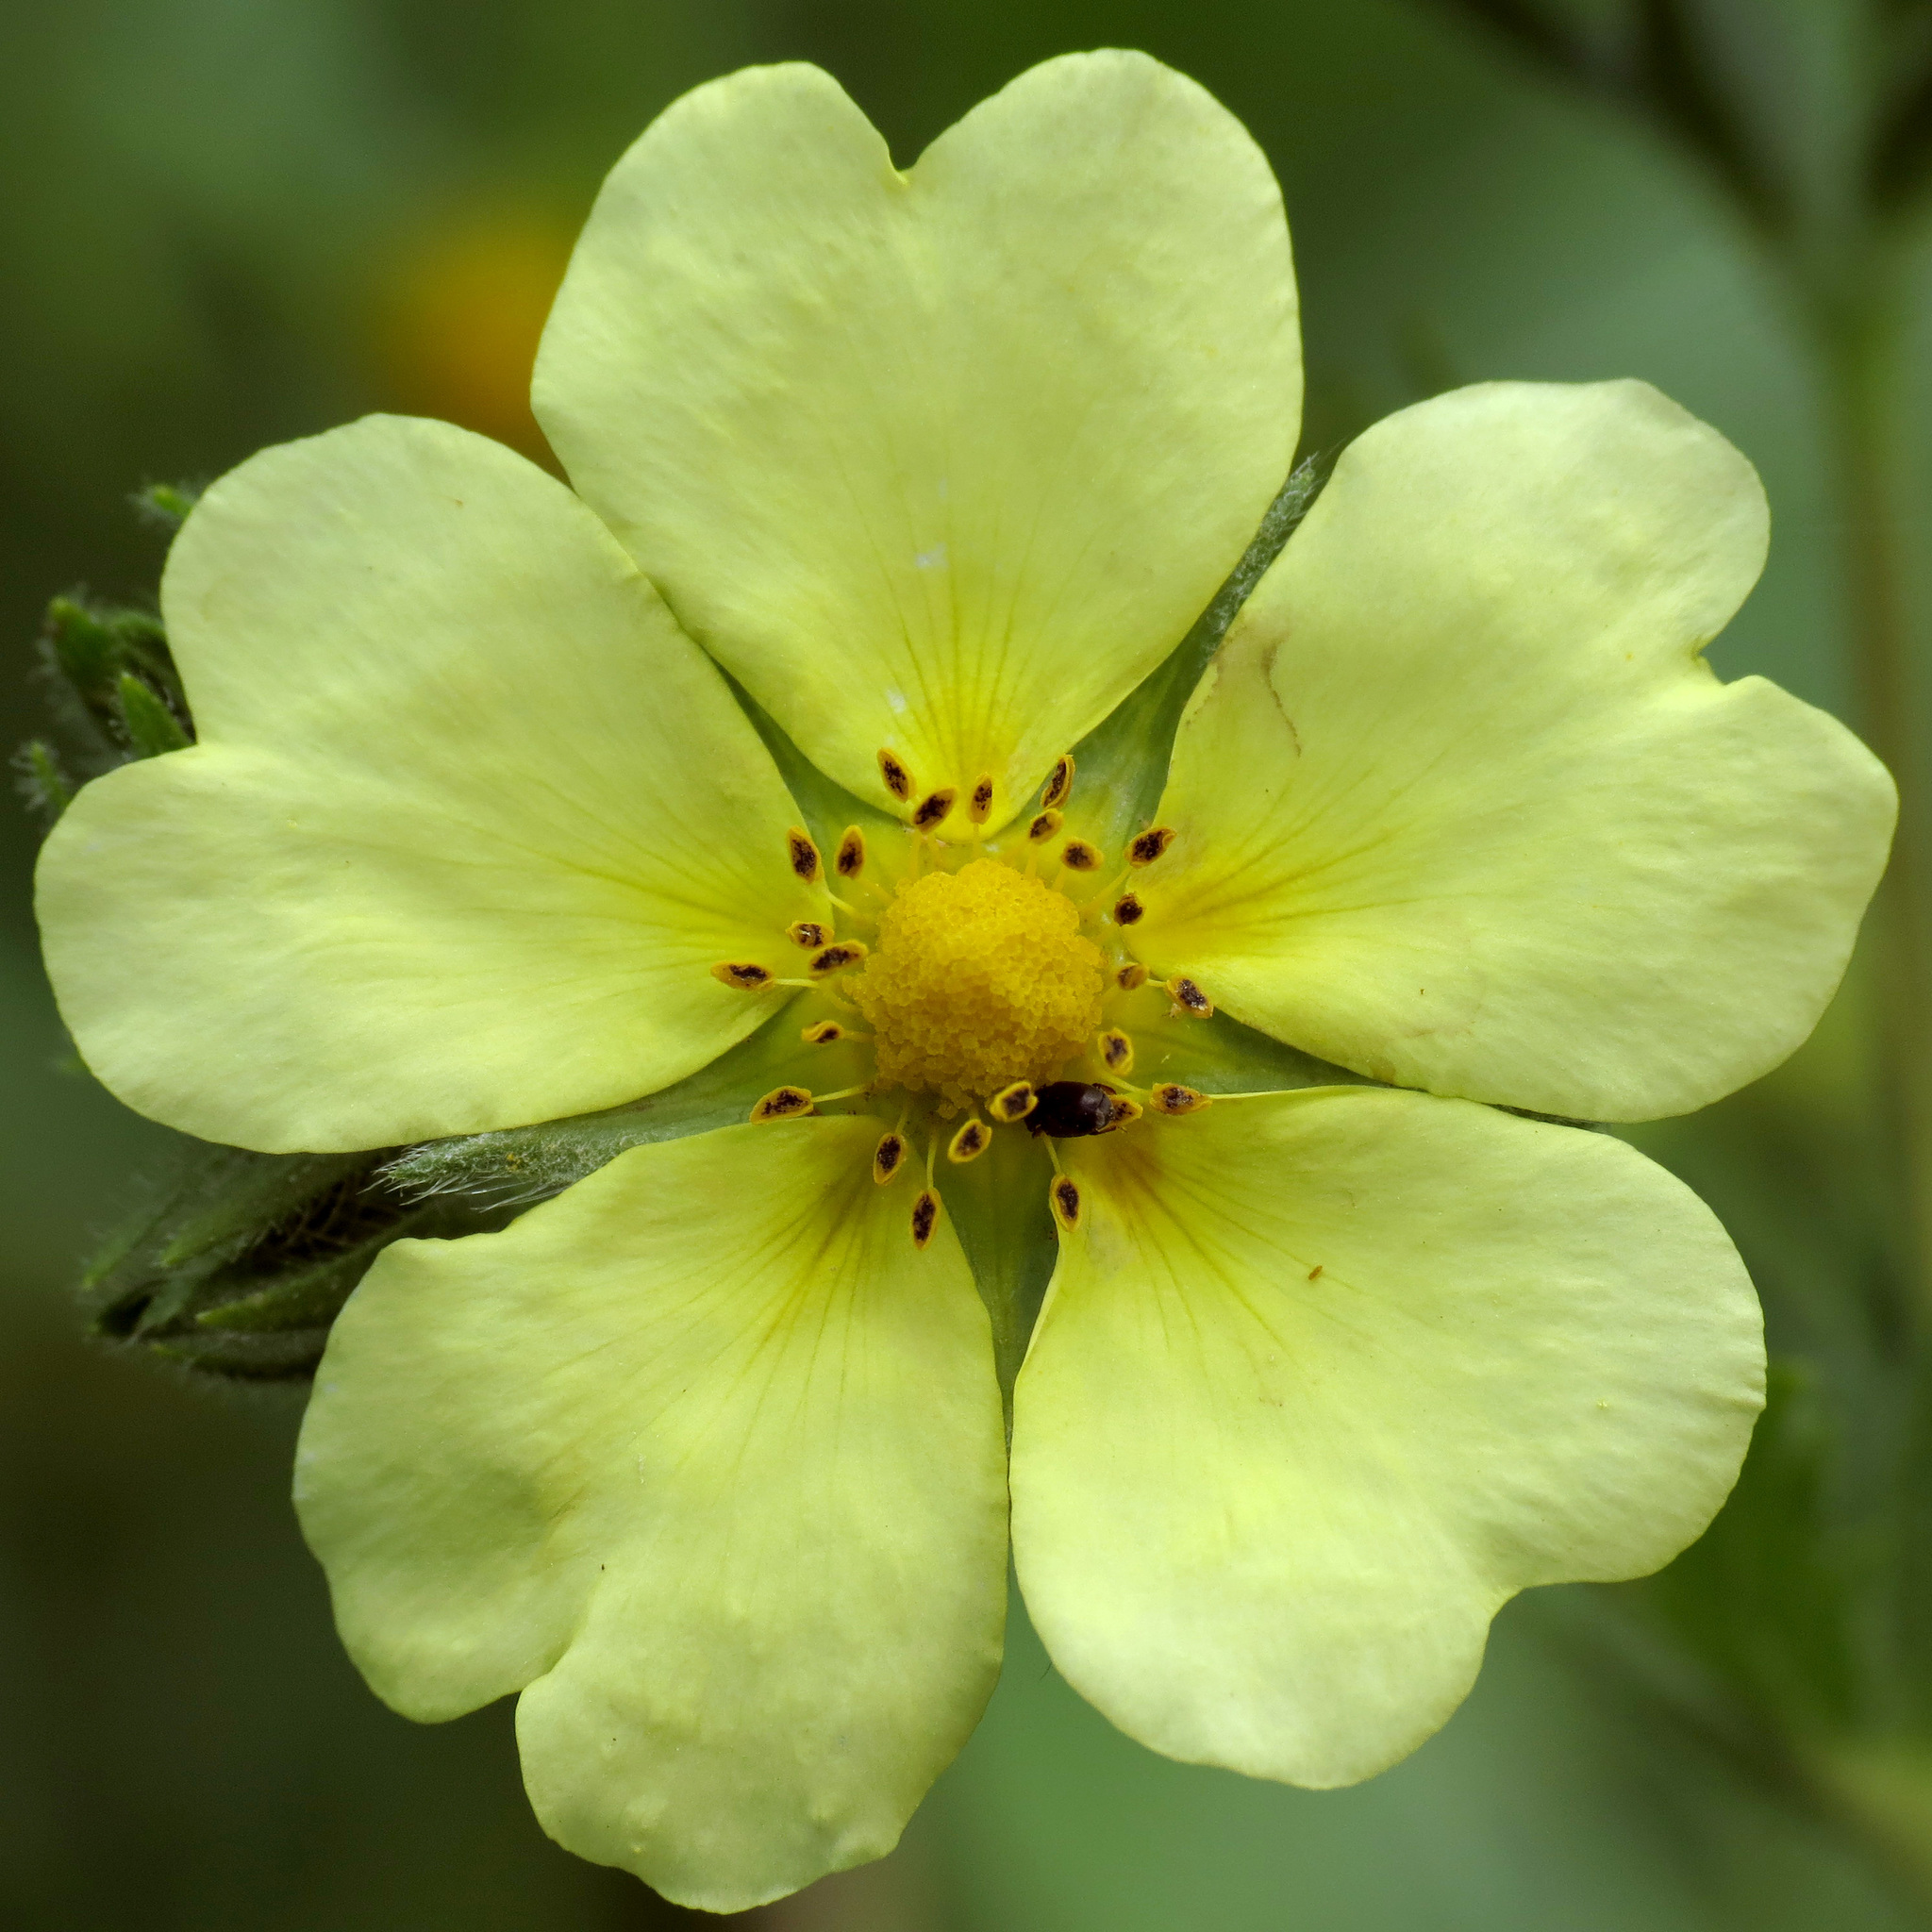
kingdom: Plantae
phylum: Tracheophyta
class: Magnoliopsida
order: Rosales
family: Rosaceae
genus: Potentilla
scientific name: Potentilla recta
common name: Sulphur cinquefoil
